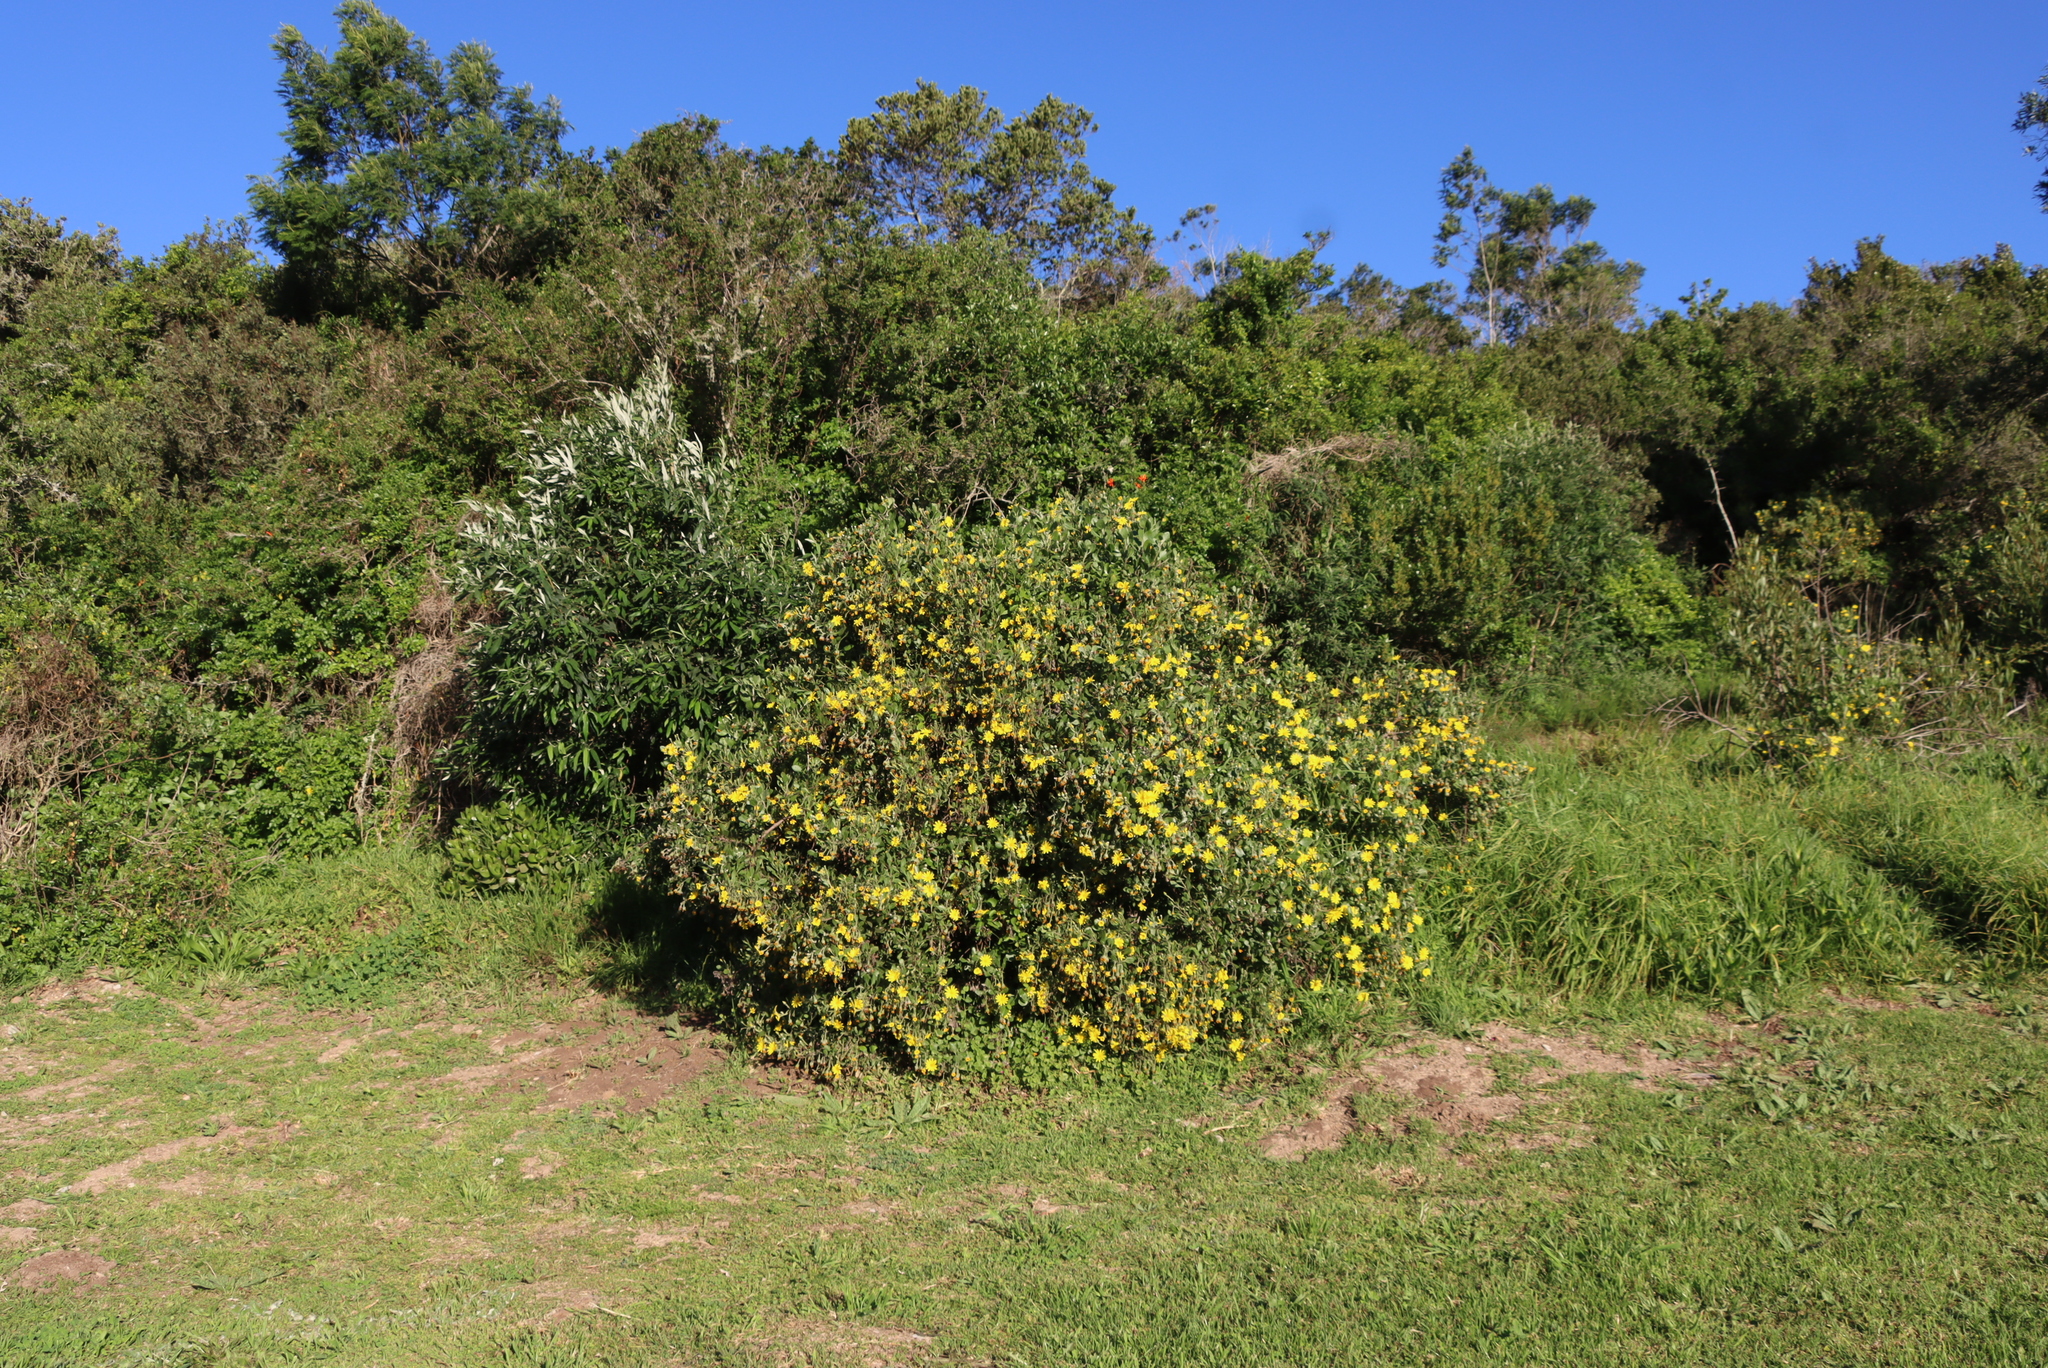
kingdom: Plantae
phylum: Tracheophyta
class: Magnoliopsida
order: Asterales
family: Asteraceae
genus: Osteospermum
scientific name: Osteospermum moniliferum
